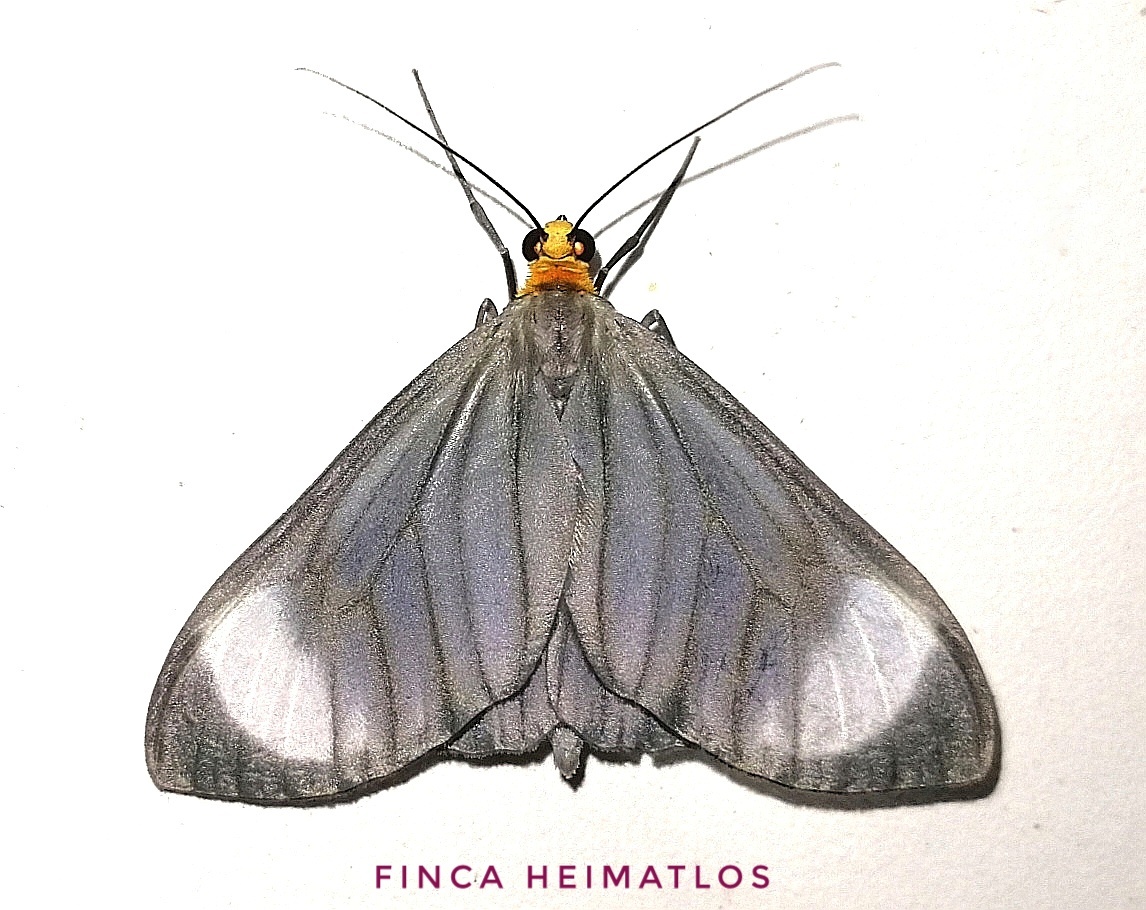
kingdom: Animalia
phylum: Arthropoda
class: Insecta
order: Lepidoptera
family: Geometridae
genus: Crocypus
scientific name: Crocypus perlucidaria
